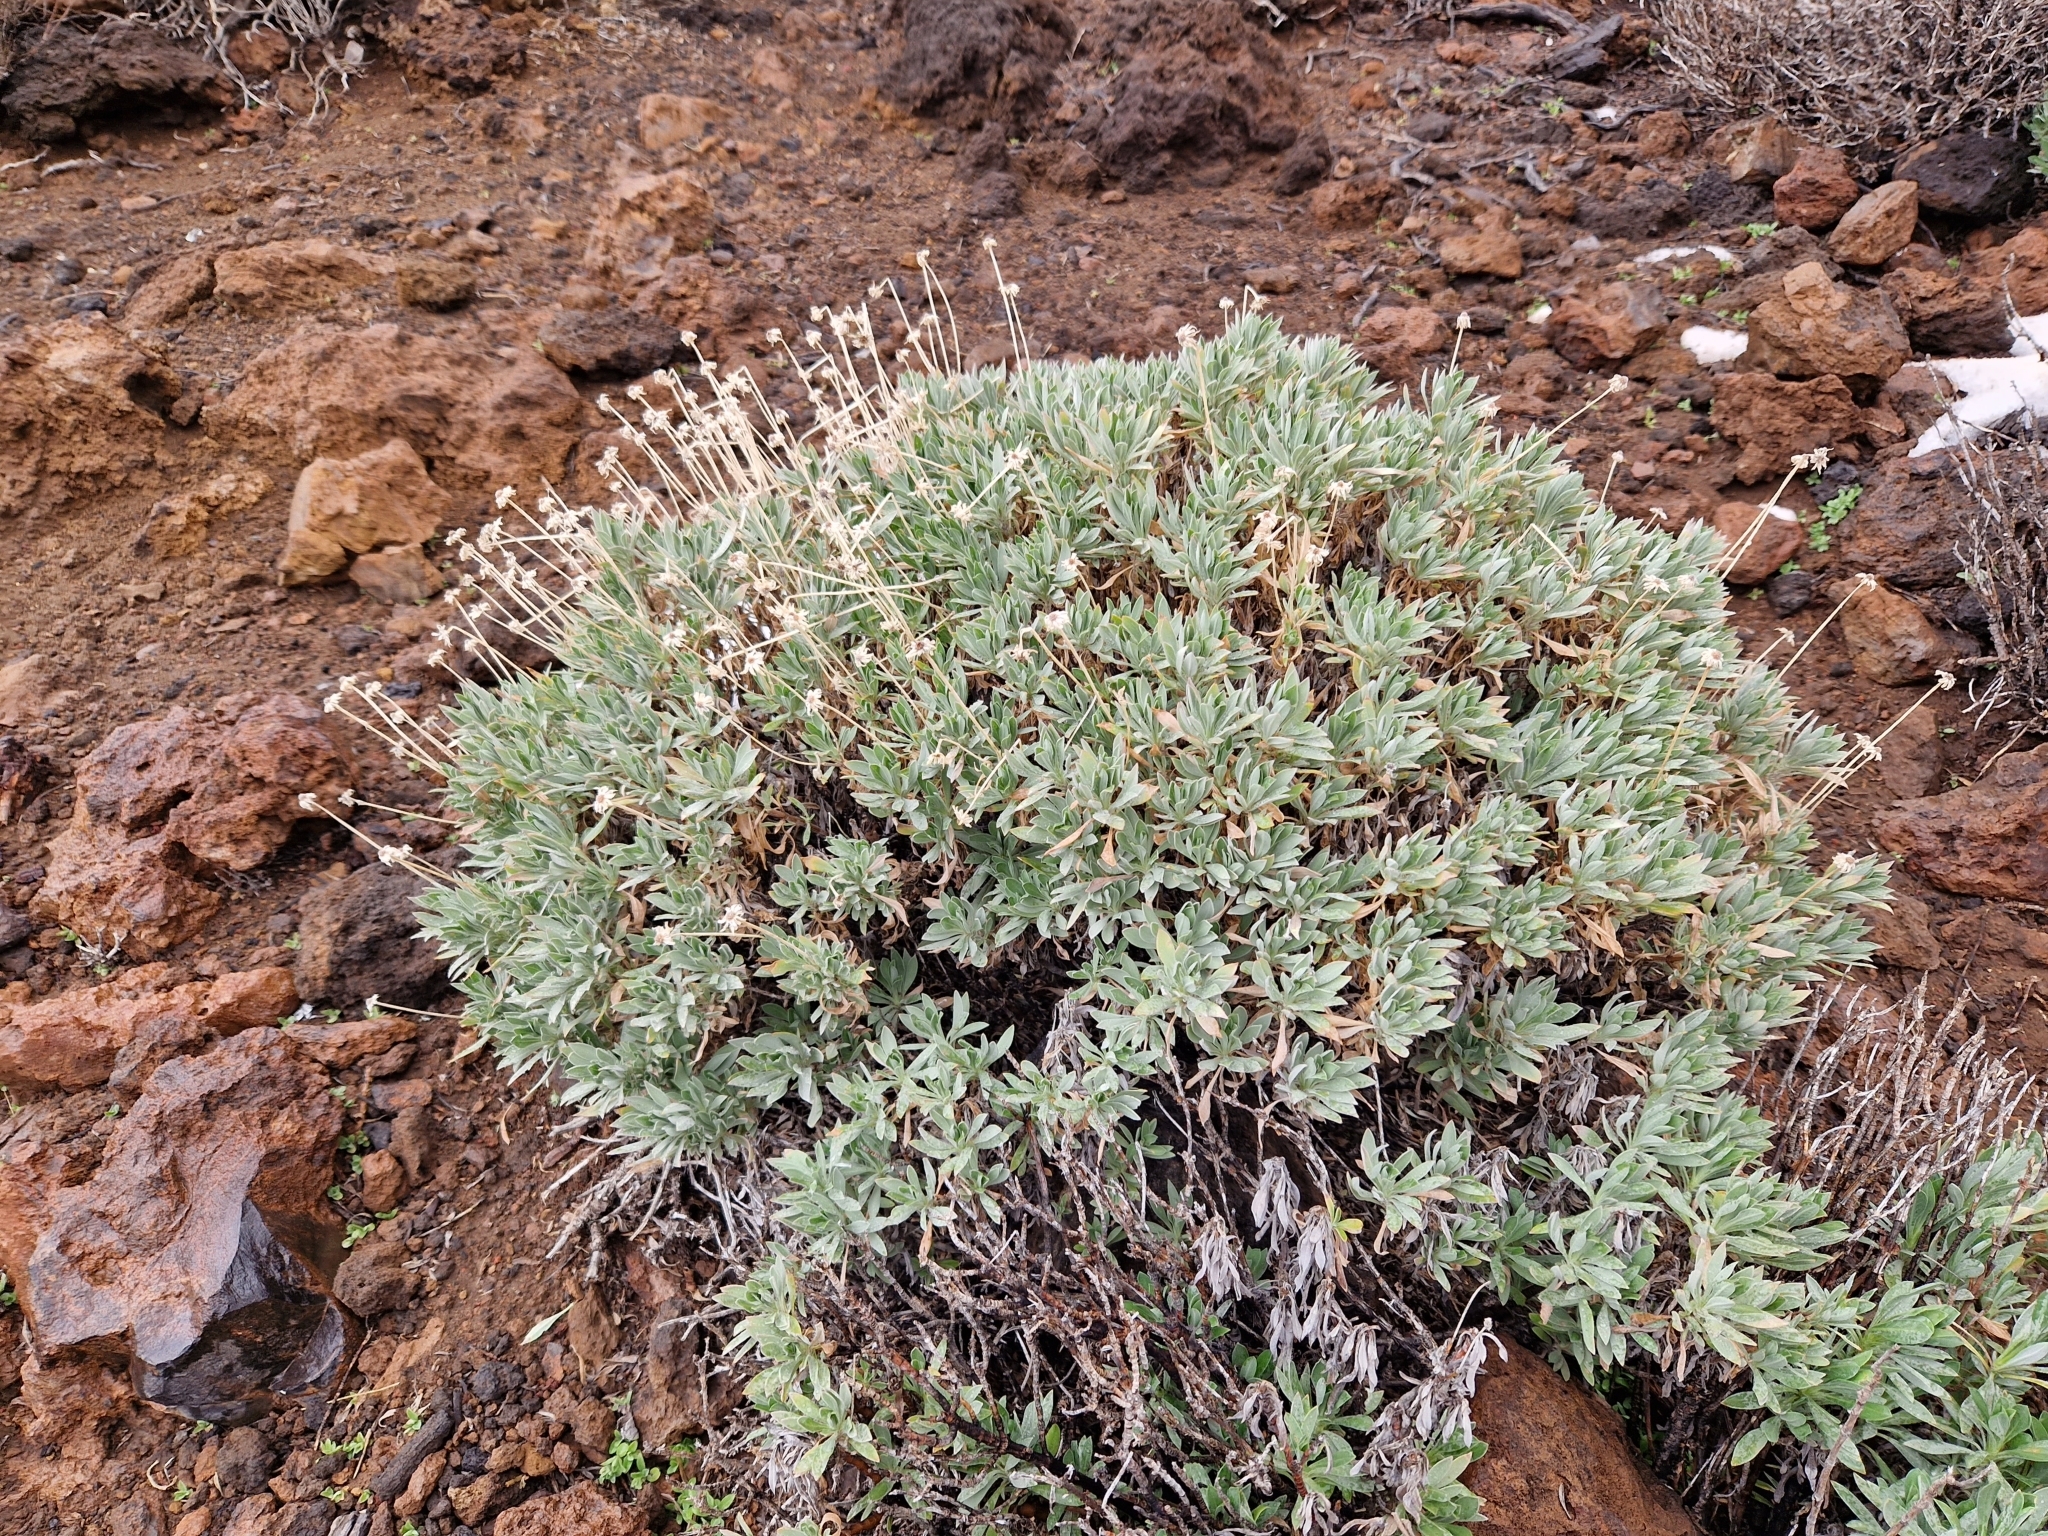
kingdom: Plantae
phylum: Tracheophyta
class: Magnoliopsida
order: Dipsacales
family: Caprifoliaceae
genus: Pterocephalus
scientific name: Pterocephalus lasiospermus
